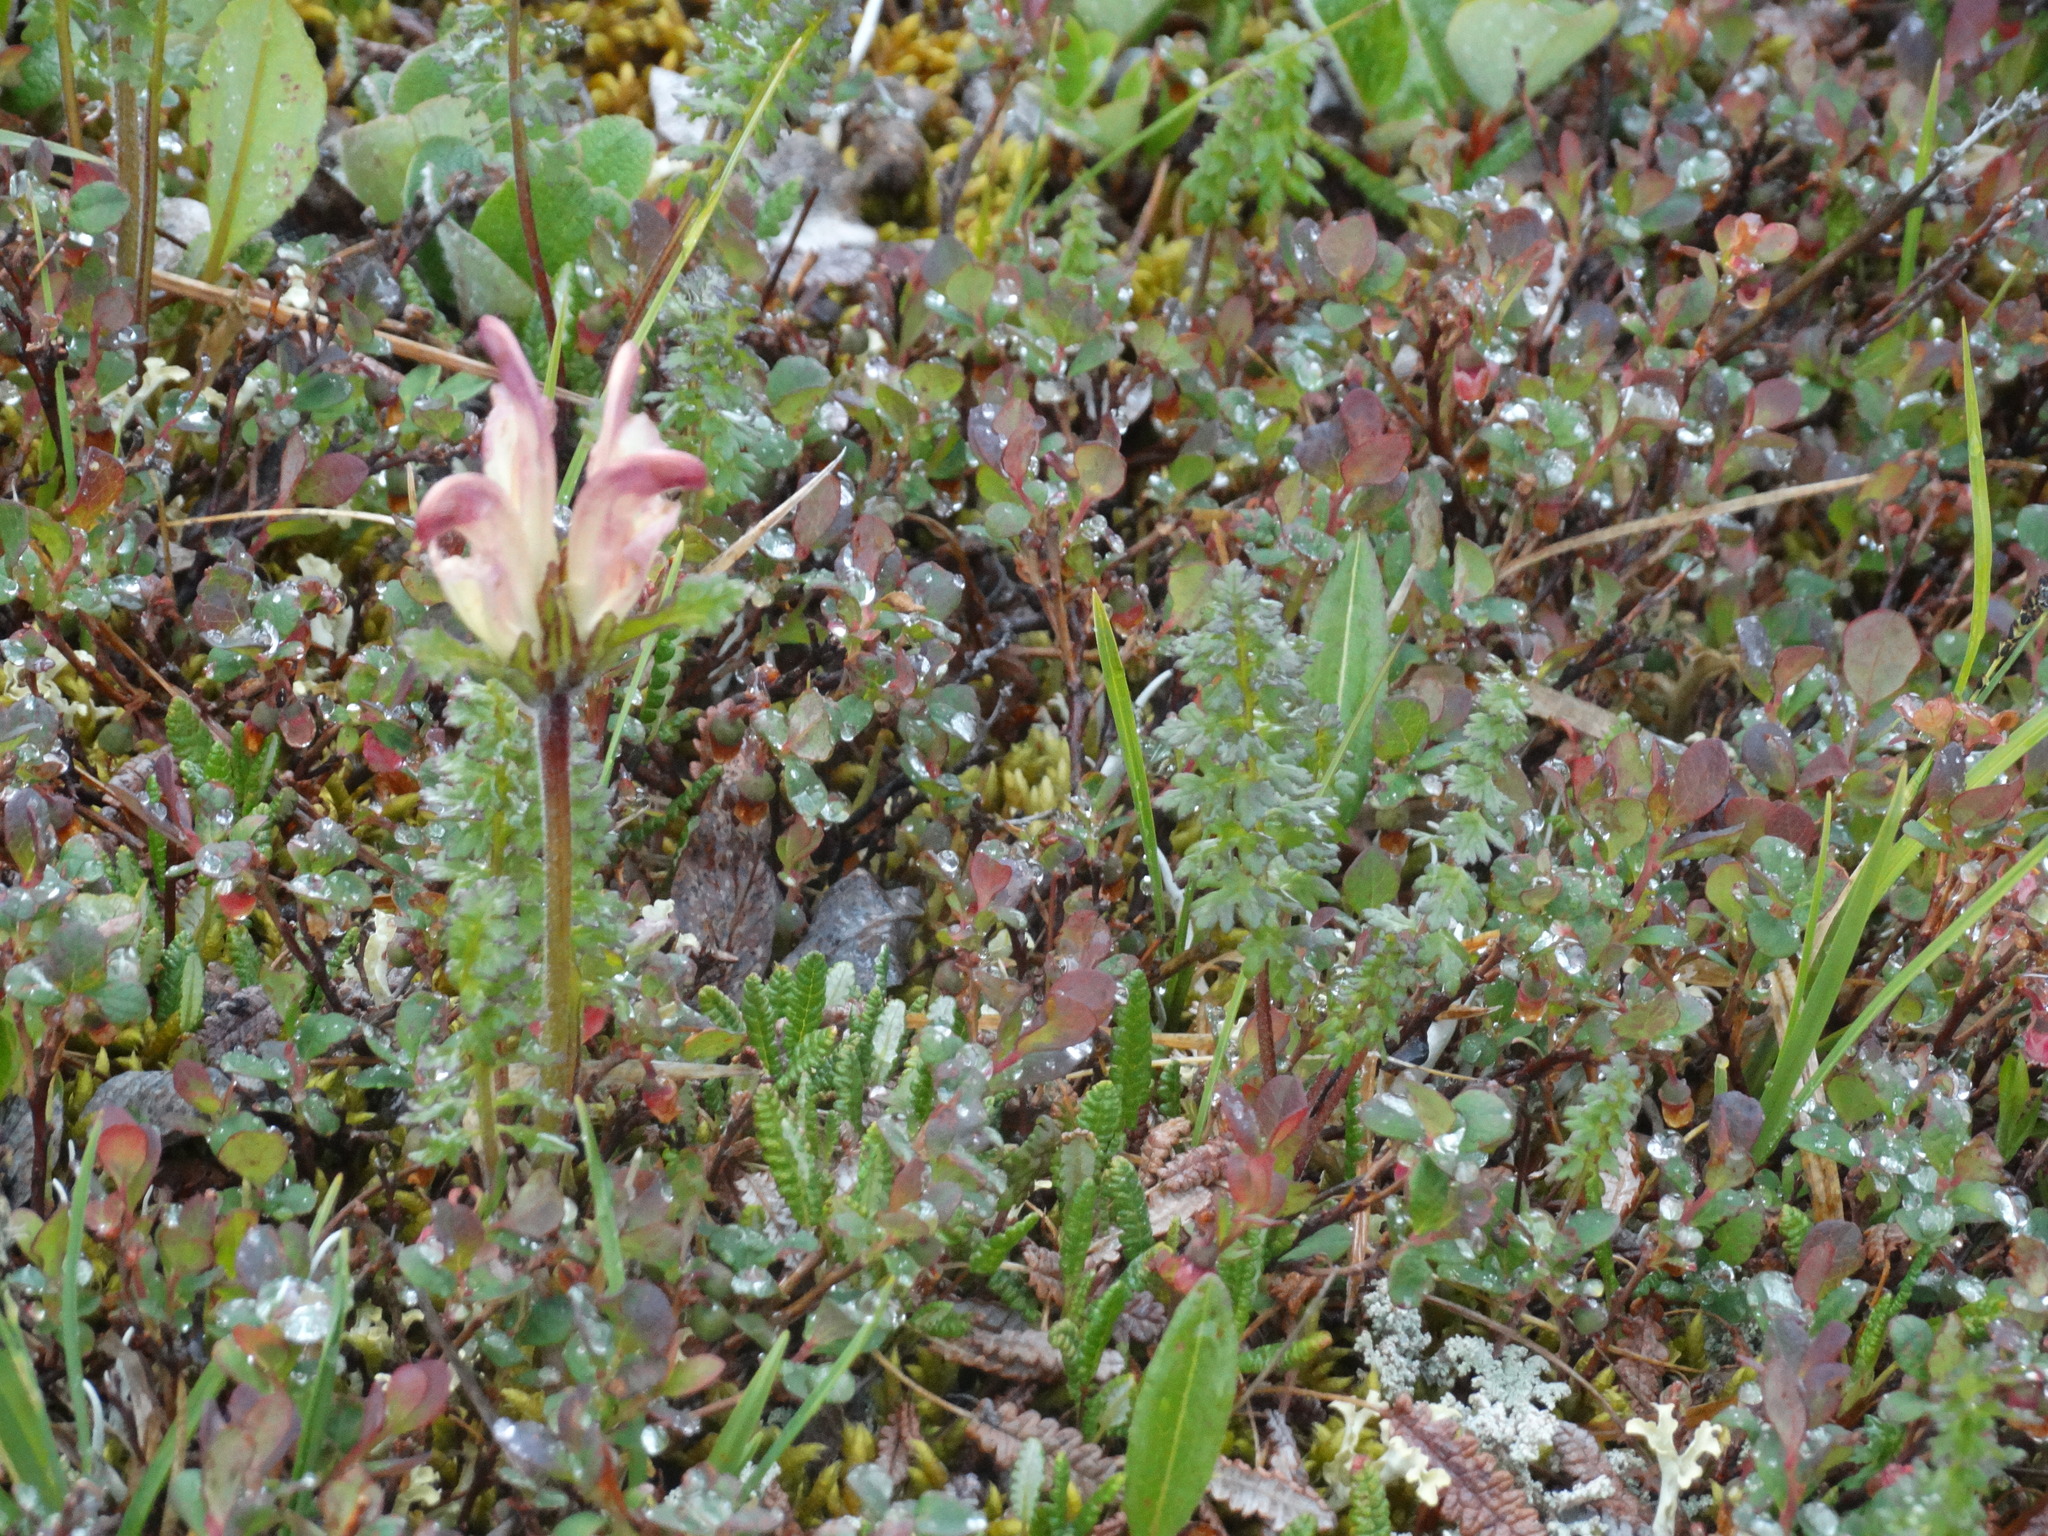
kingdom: Plantae
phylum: Tracheophyta
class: Magnoliopsida
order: Lamiales
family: Orobanchaceae
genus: Pedicularis
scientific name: Pedicularis capitata
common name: Capitate lousewort
